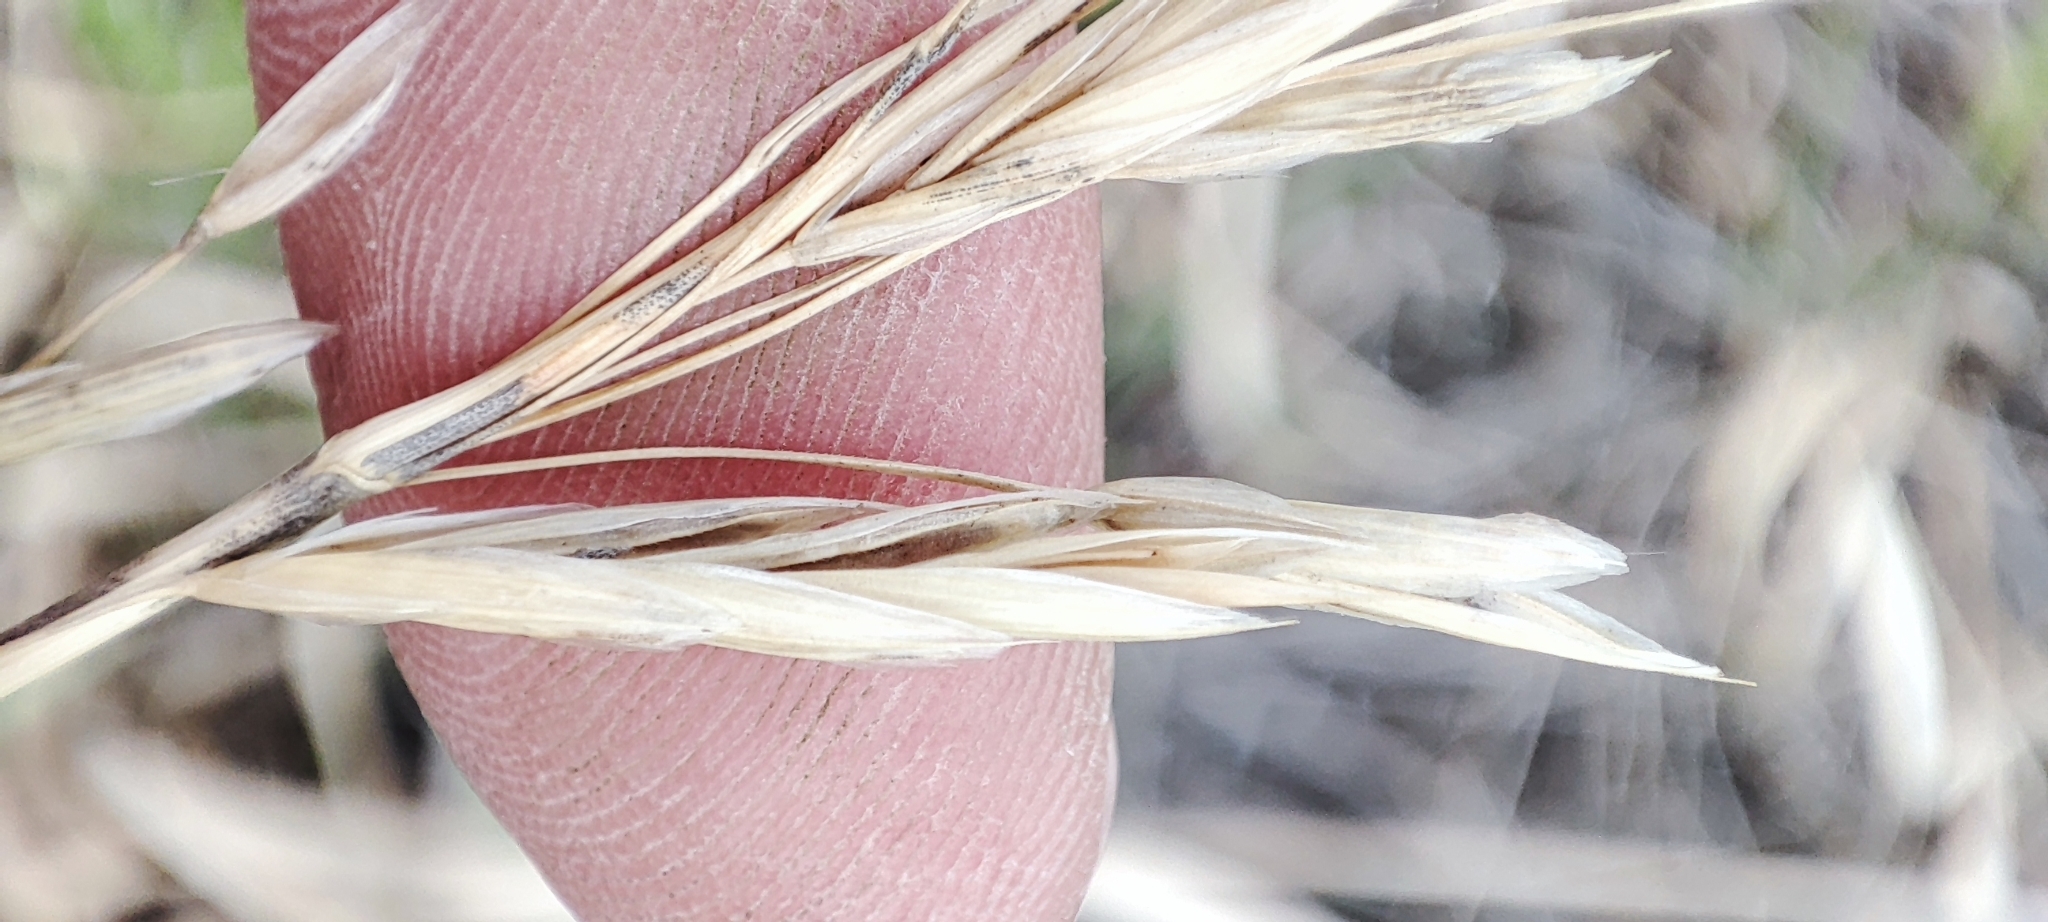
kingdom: Plantae
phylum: Tracheophyta
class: Liliopsida
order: Poales
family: Poaceae
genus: Bromus
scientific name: Bromus inermis
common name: Smooth brome
